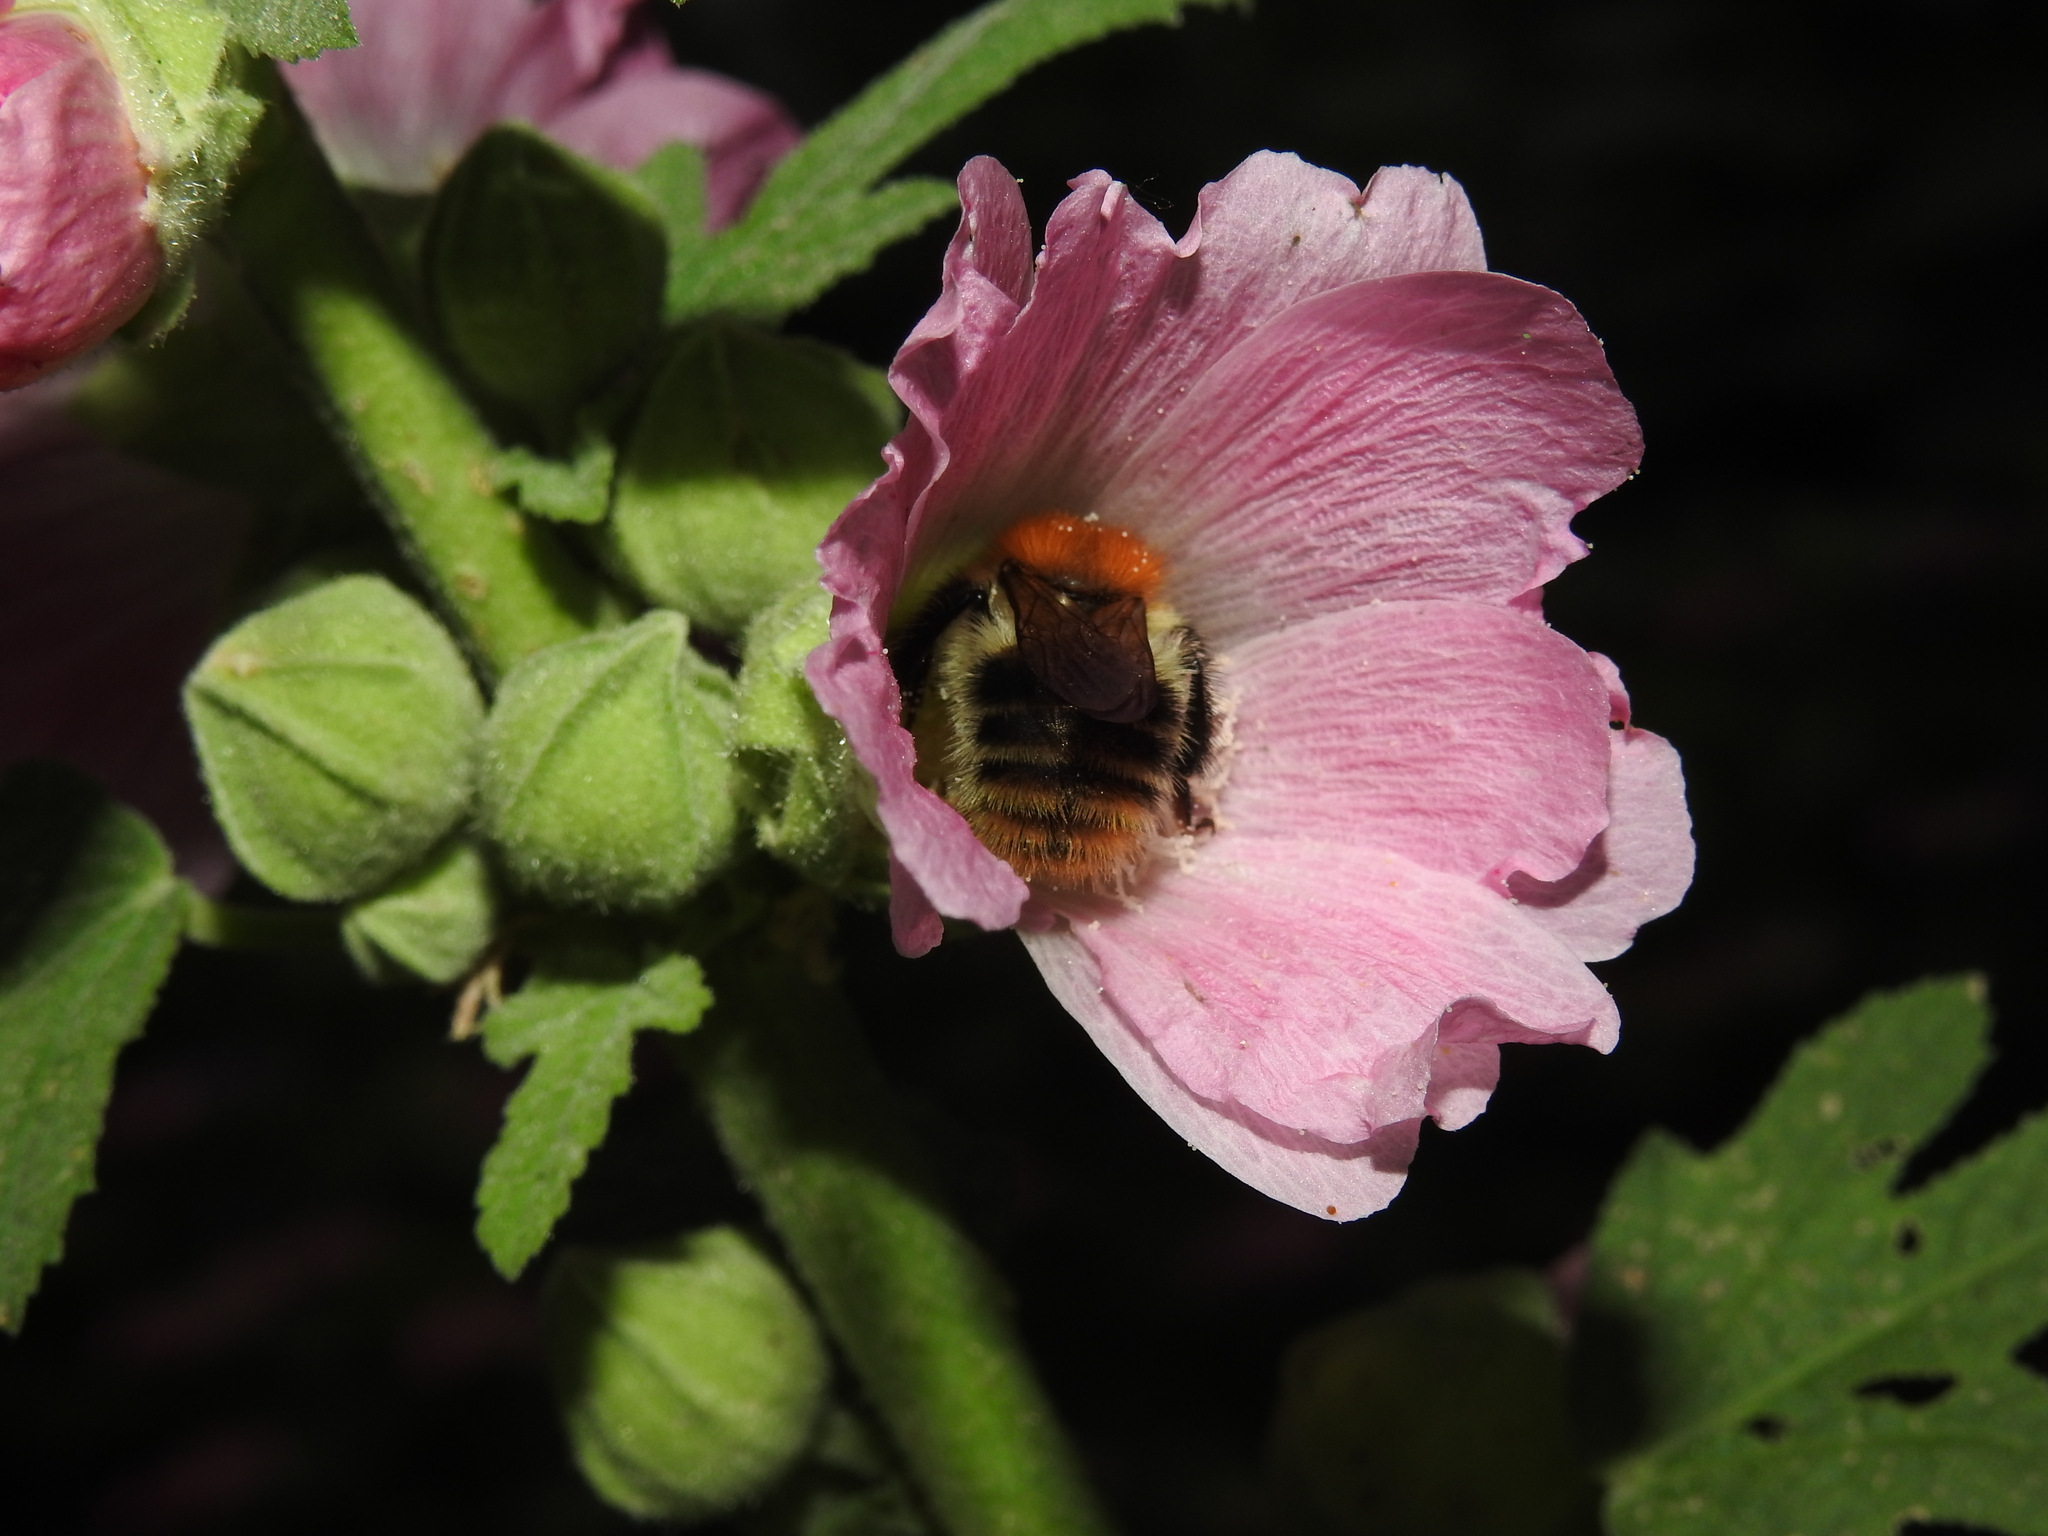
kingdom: Animalia
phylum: Arthropoda
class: Insecta
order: Hymenoptera
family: Apidae
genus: Bombus
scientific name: Bombus pascuorum
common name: Common carder bee
